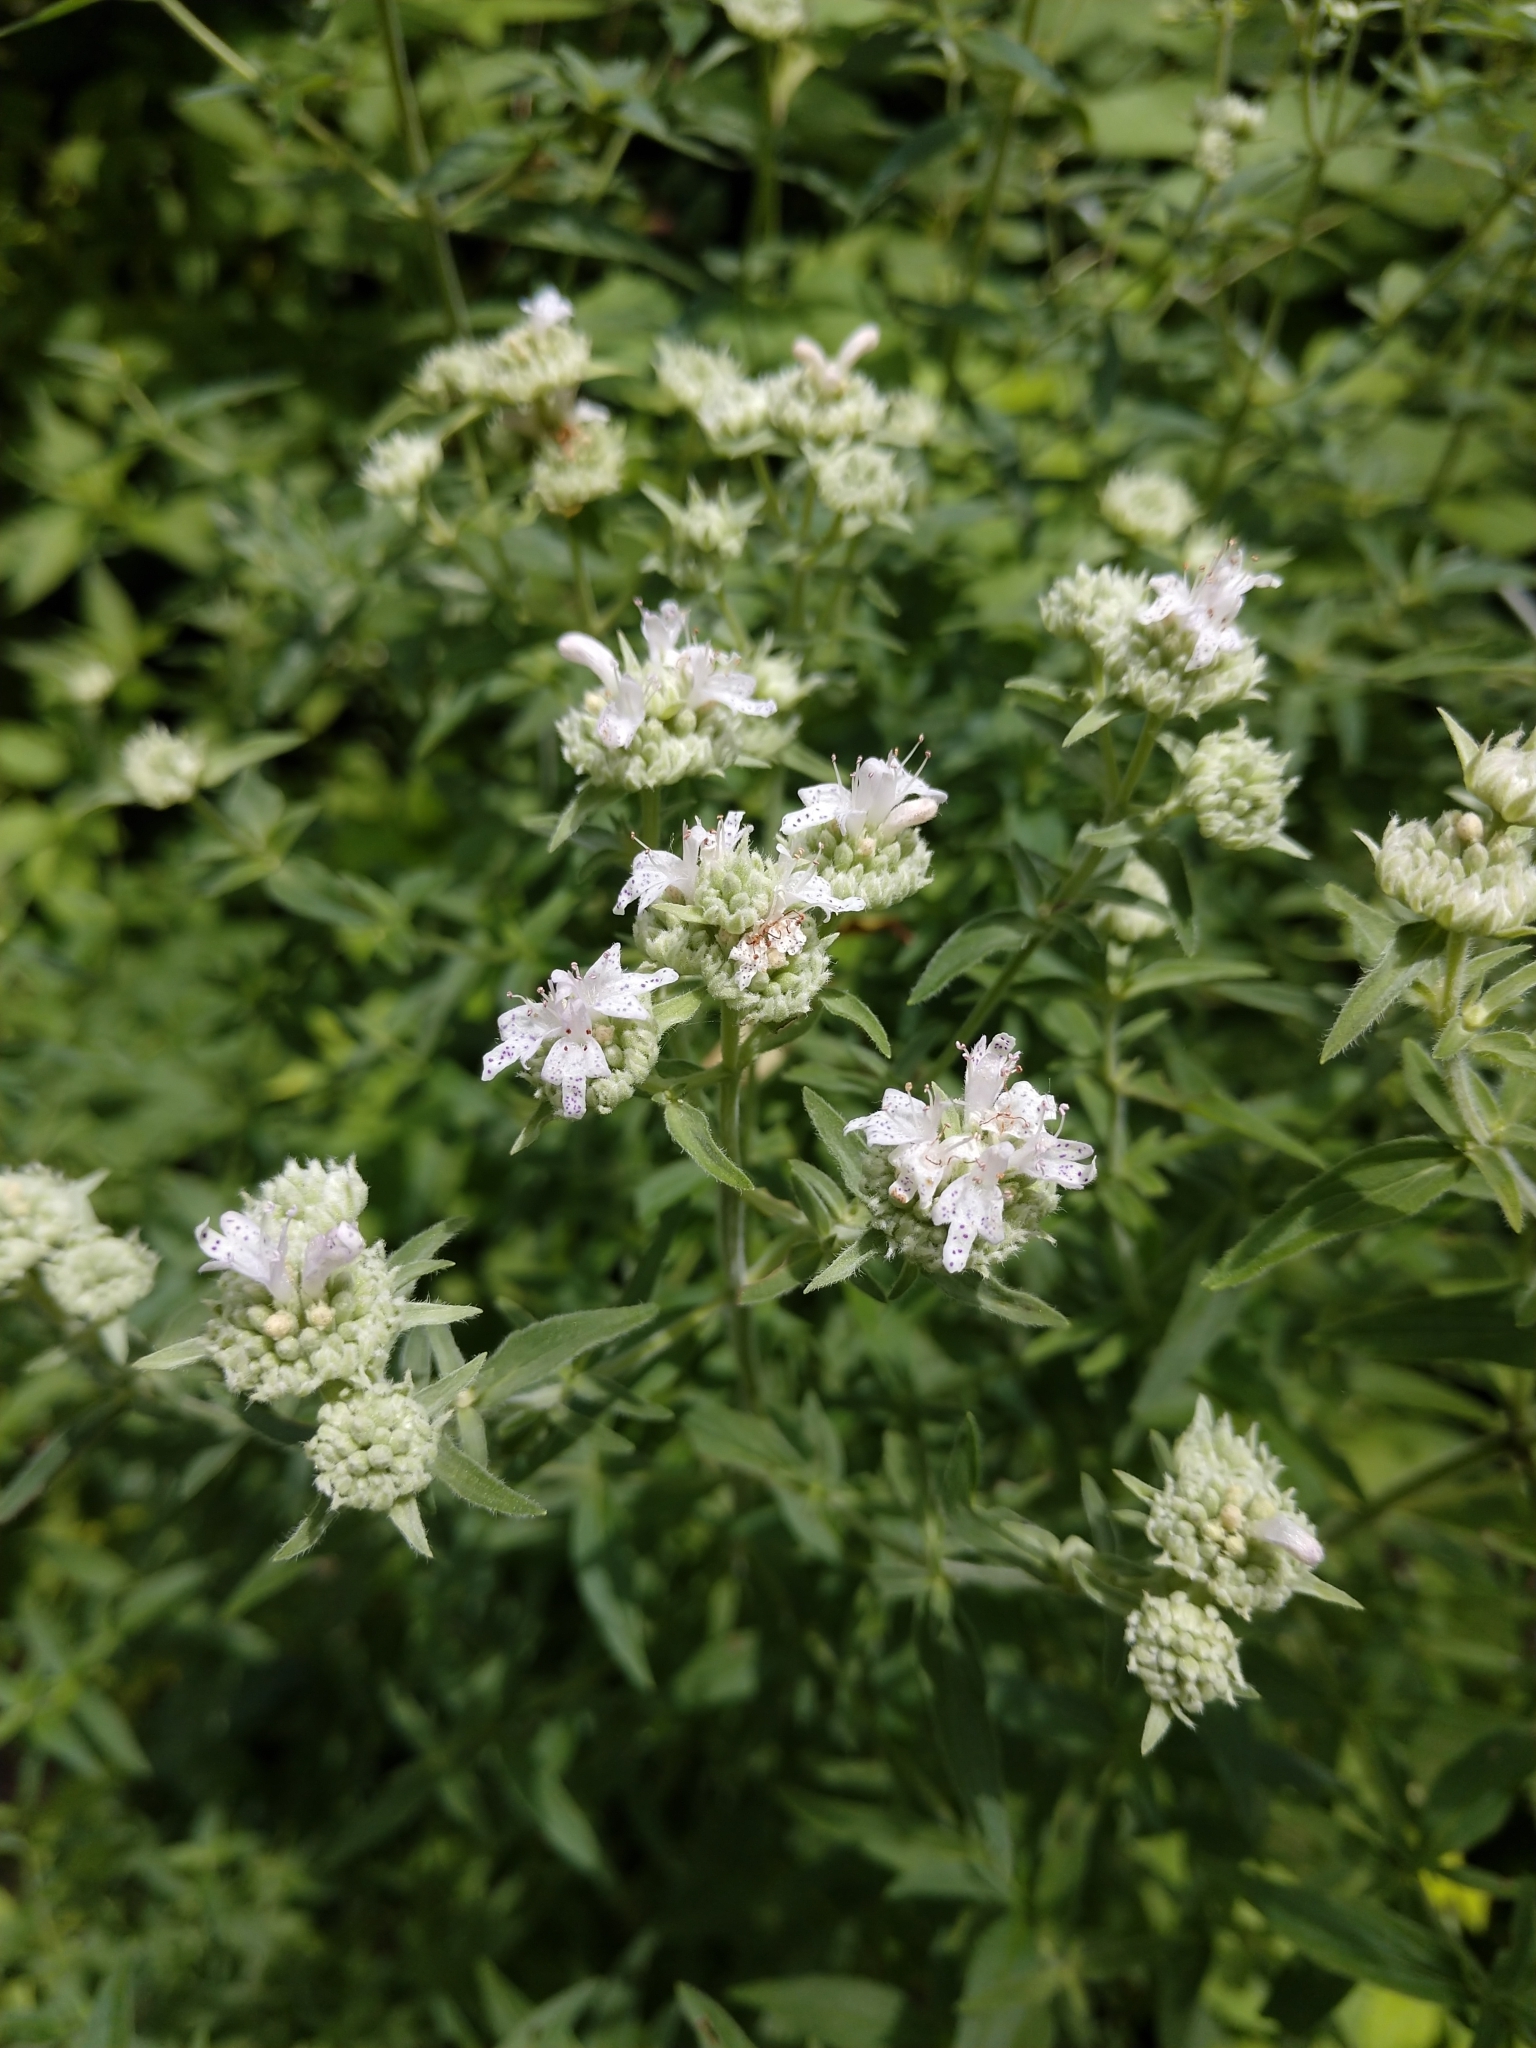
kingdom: Plantae
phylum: Tracheophyta
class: Magnoliopsida
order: Lamiales
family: Lamiaceae
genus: Pycnanthemum
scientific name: Pycnanthemum virginianum
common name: Virginia mountain-mint
